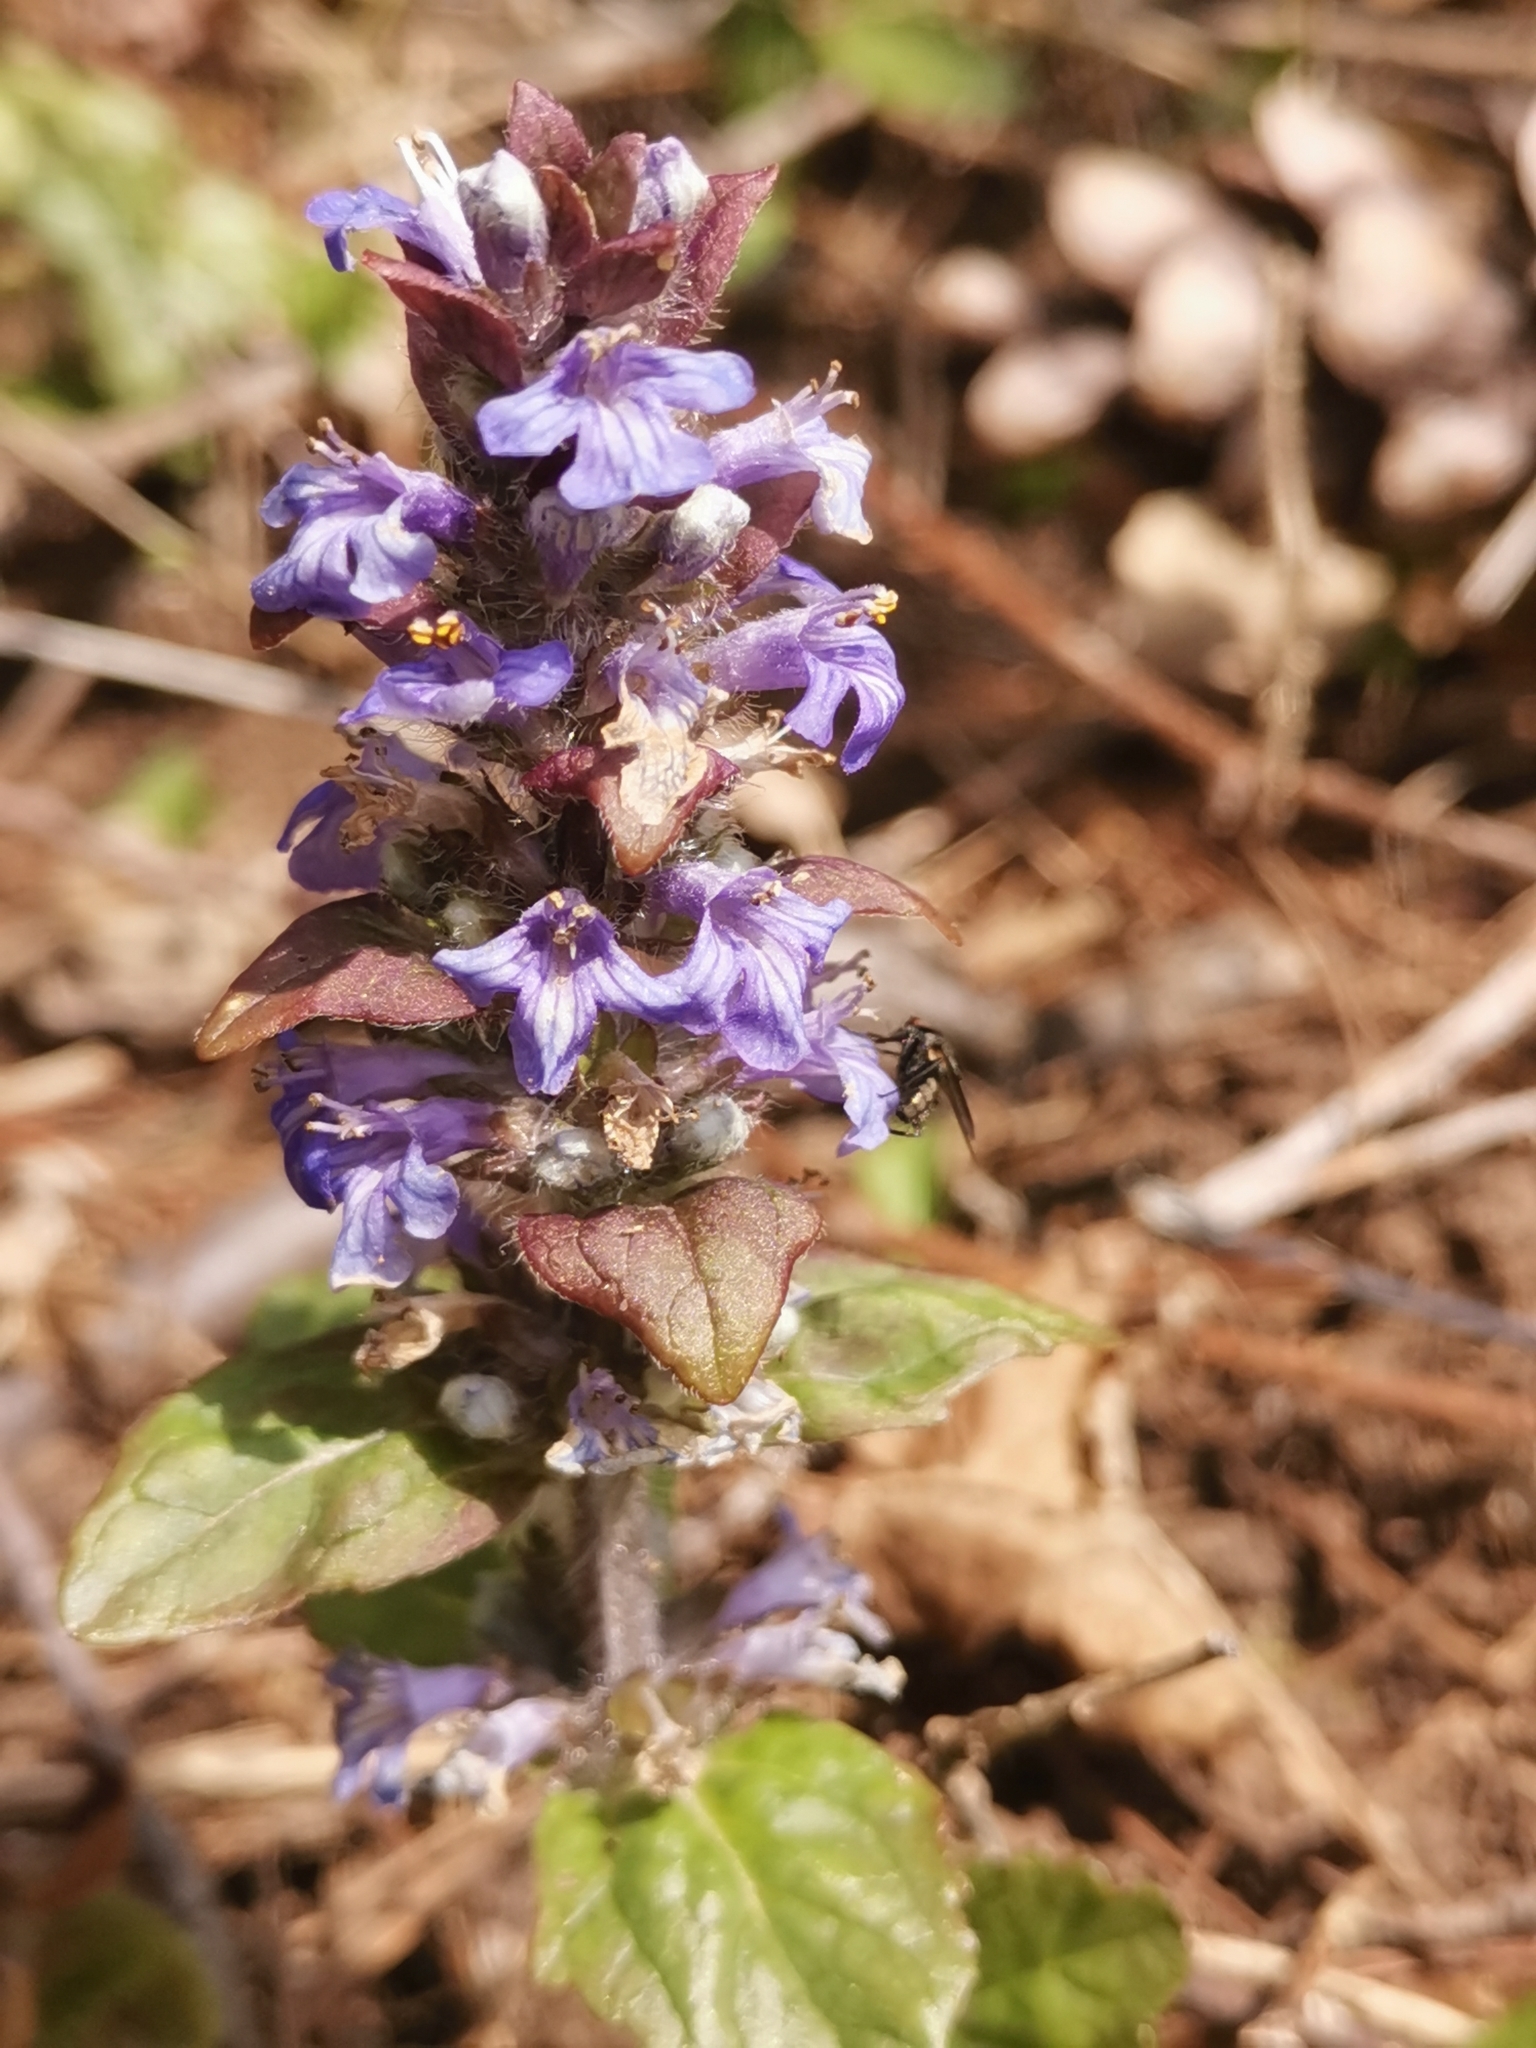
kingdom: Plantae
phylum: Tracheophyta
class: Magnoliopsida
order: Lamiales
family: Lamiaceae
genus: Ajuga
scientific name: Ajuga reptans
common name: Bugle
